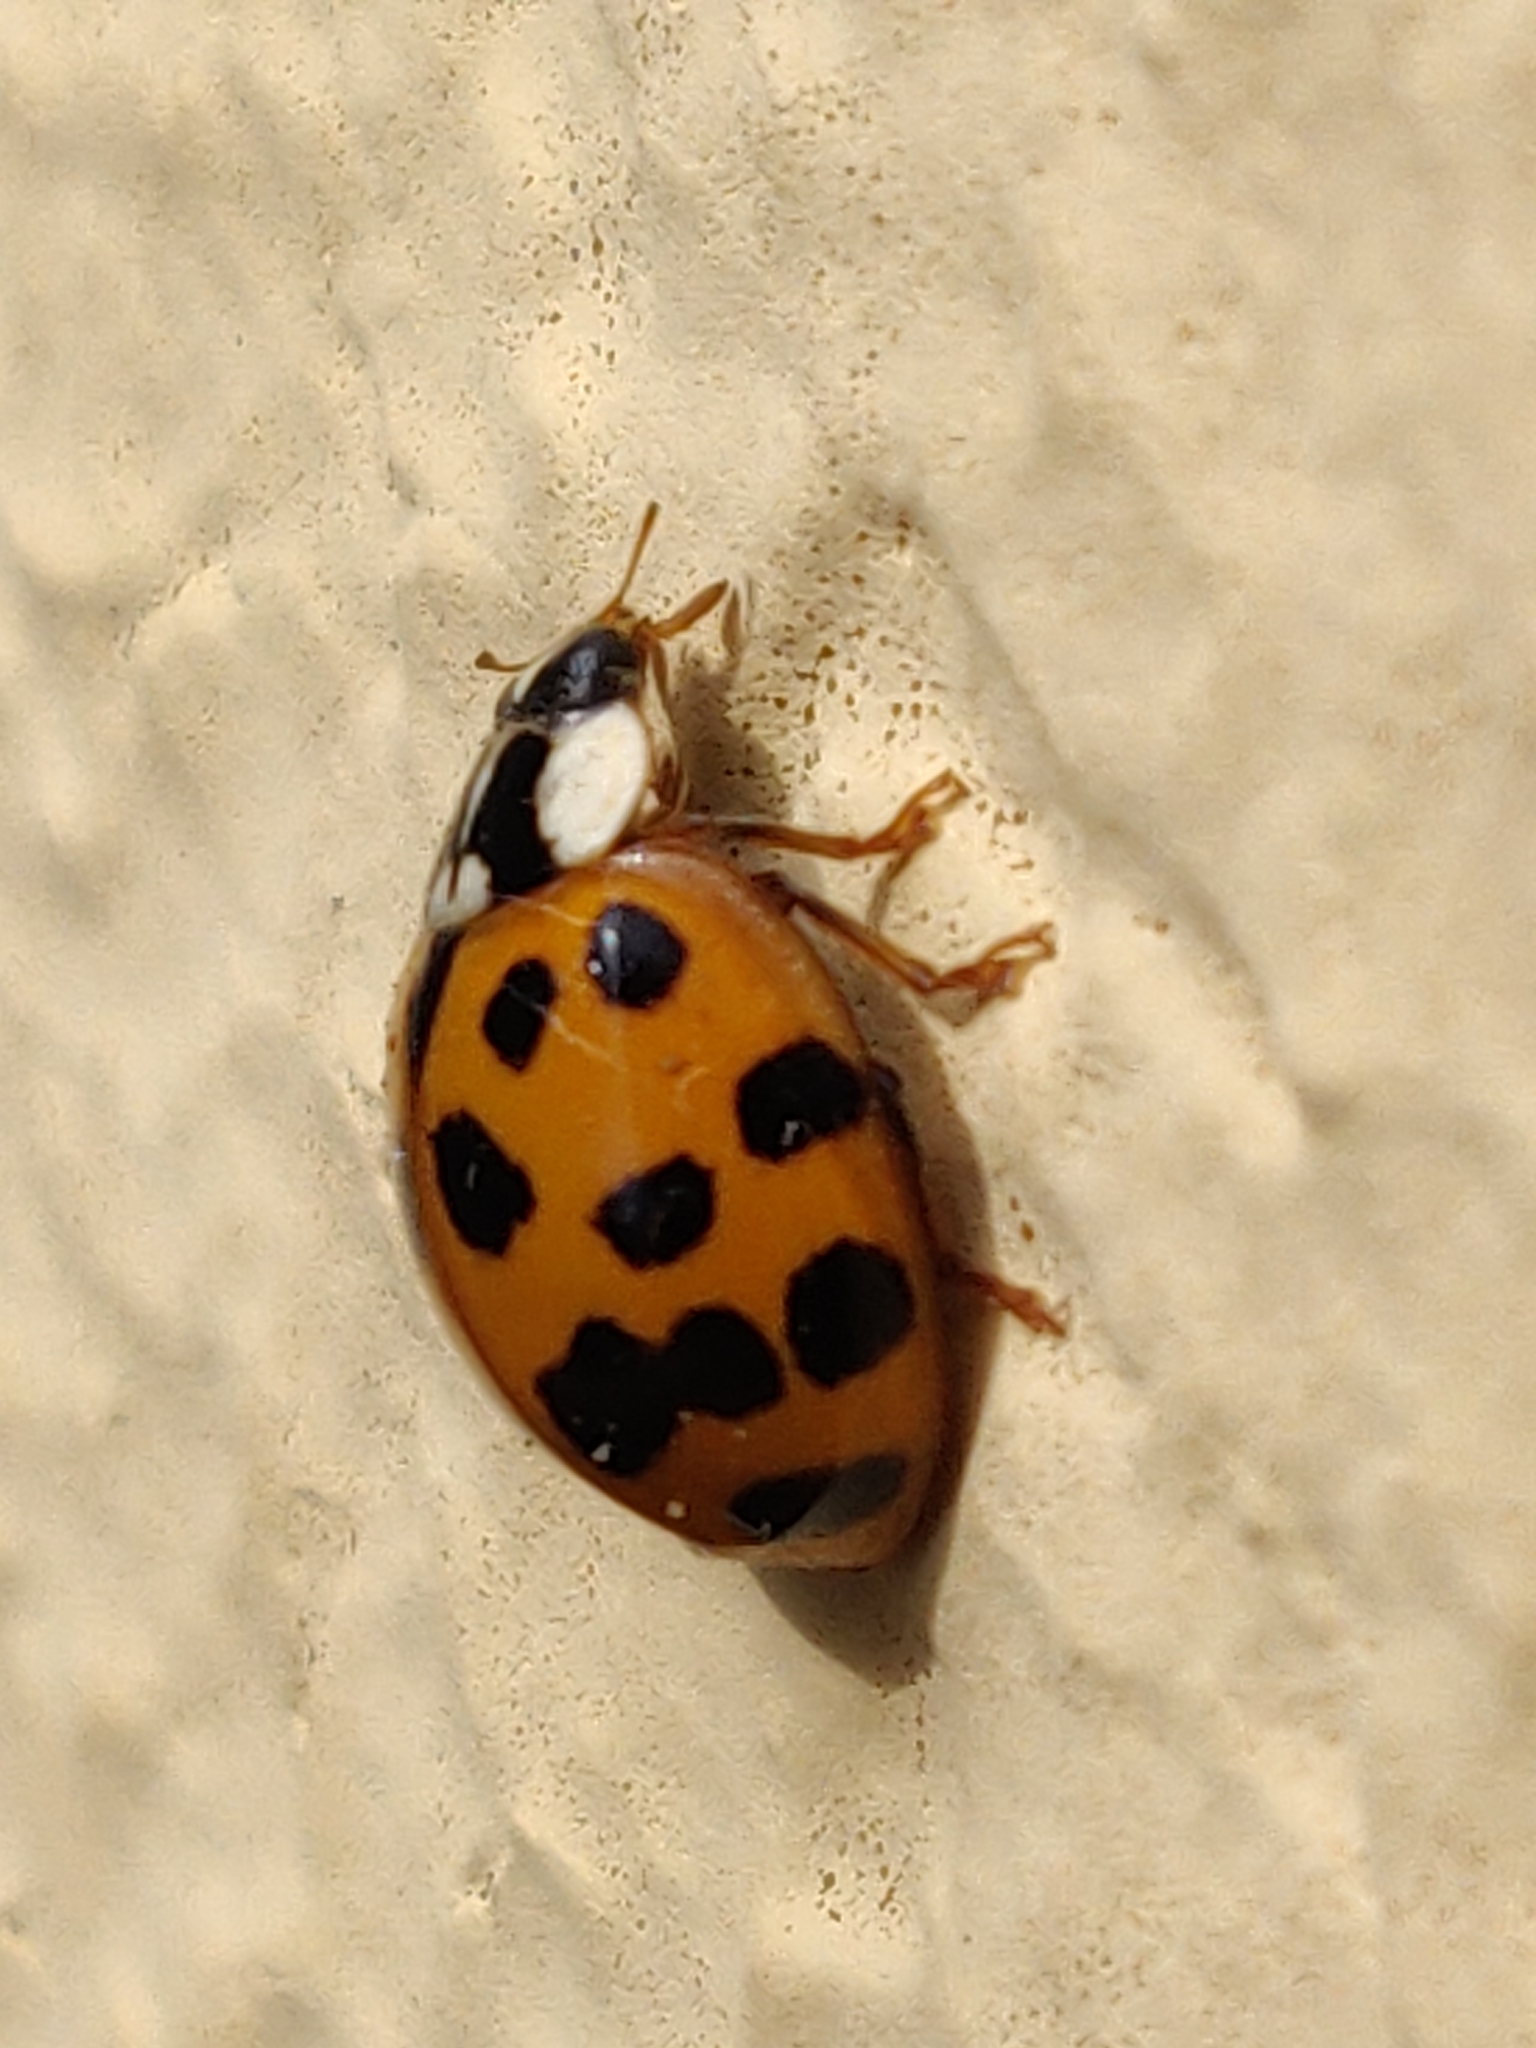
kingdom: Animalia
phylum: Arthropoda
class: Insecta
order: Coleoptera
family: Coccinellidae
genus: Harmonia
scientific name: Harmonia axyridis
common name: Harlequin ladybird
